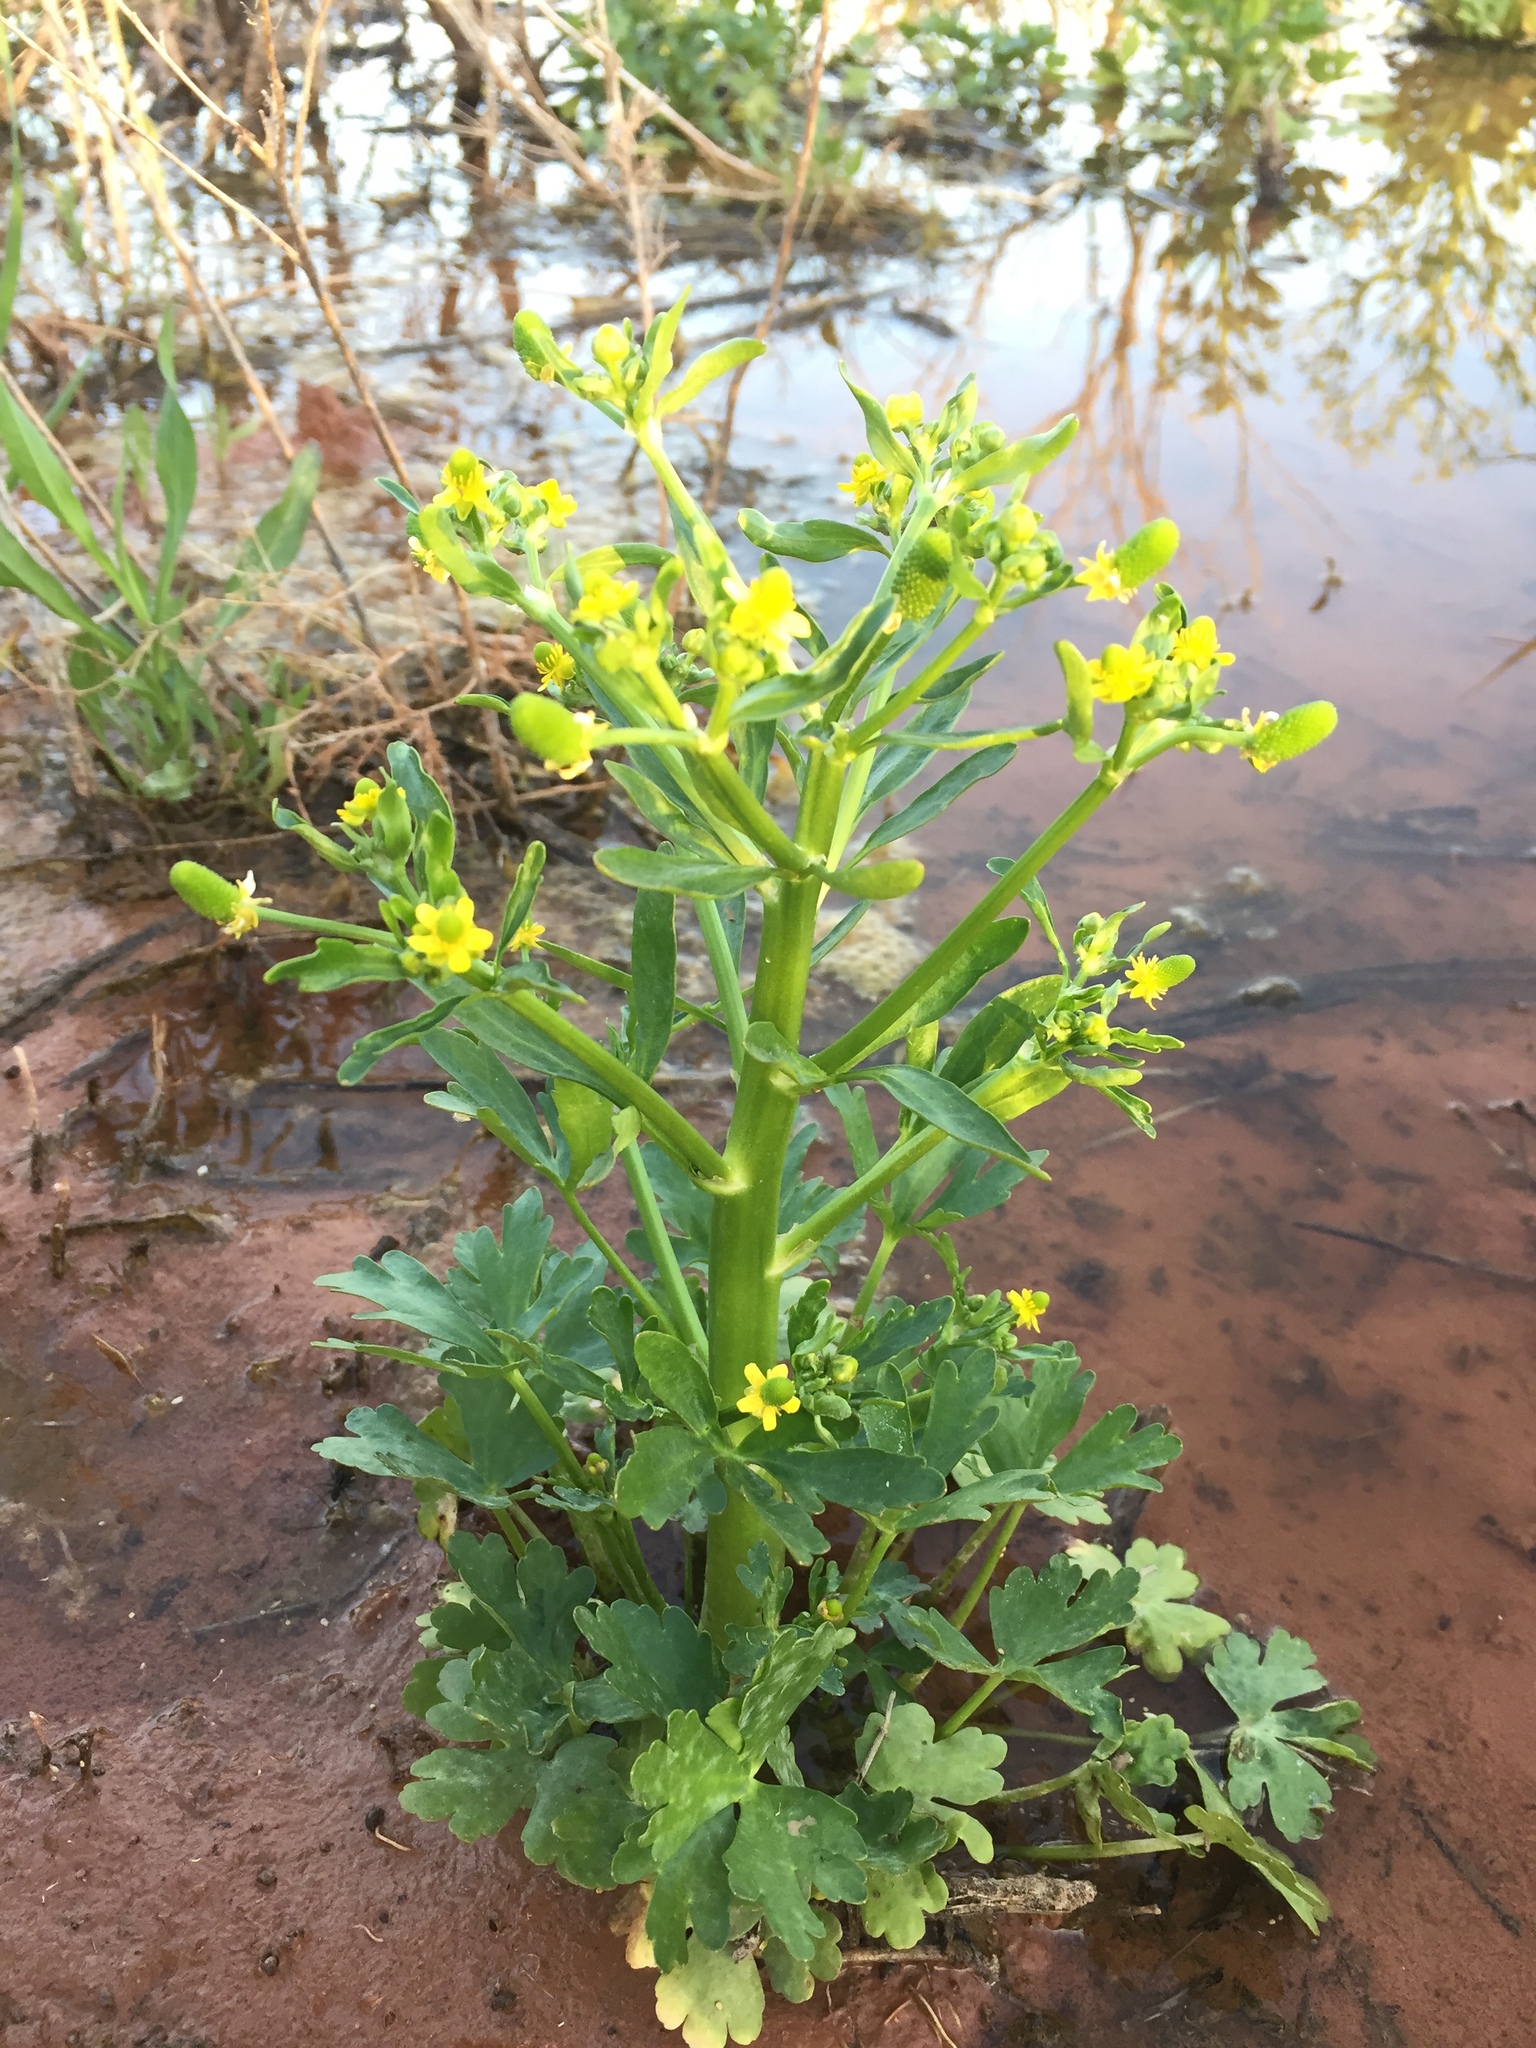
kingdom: Plantae
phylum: Tracheophyta
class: Magnoliopsida
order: Ranunculales
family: Ranunculaceae
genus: Ranunculus
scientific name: Ranunculus sceleratus
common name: Celery-leaved buttercup
